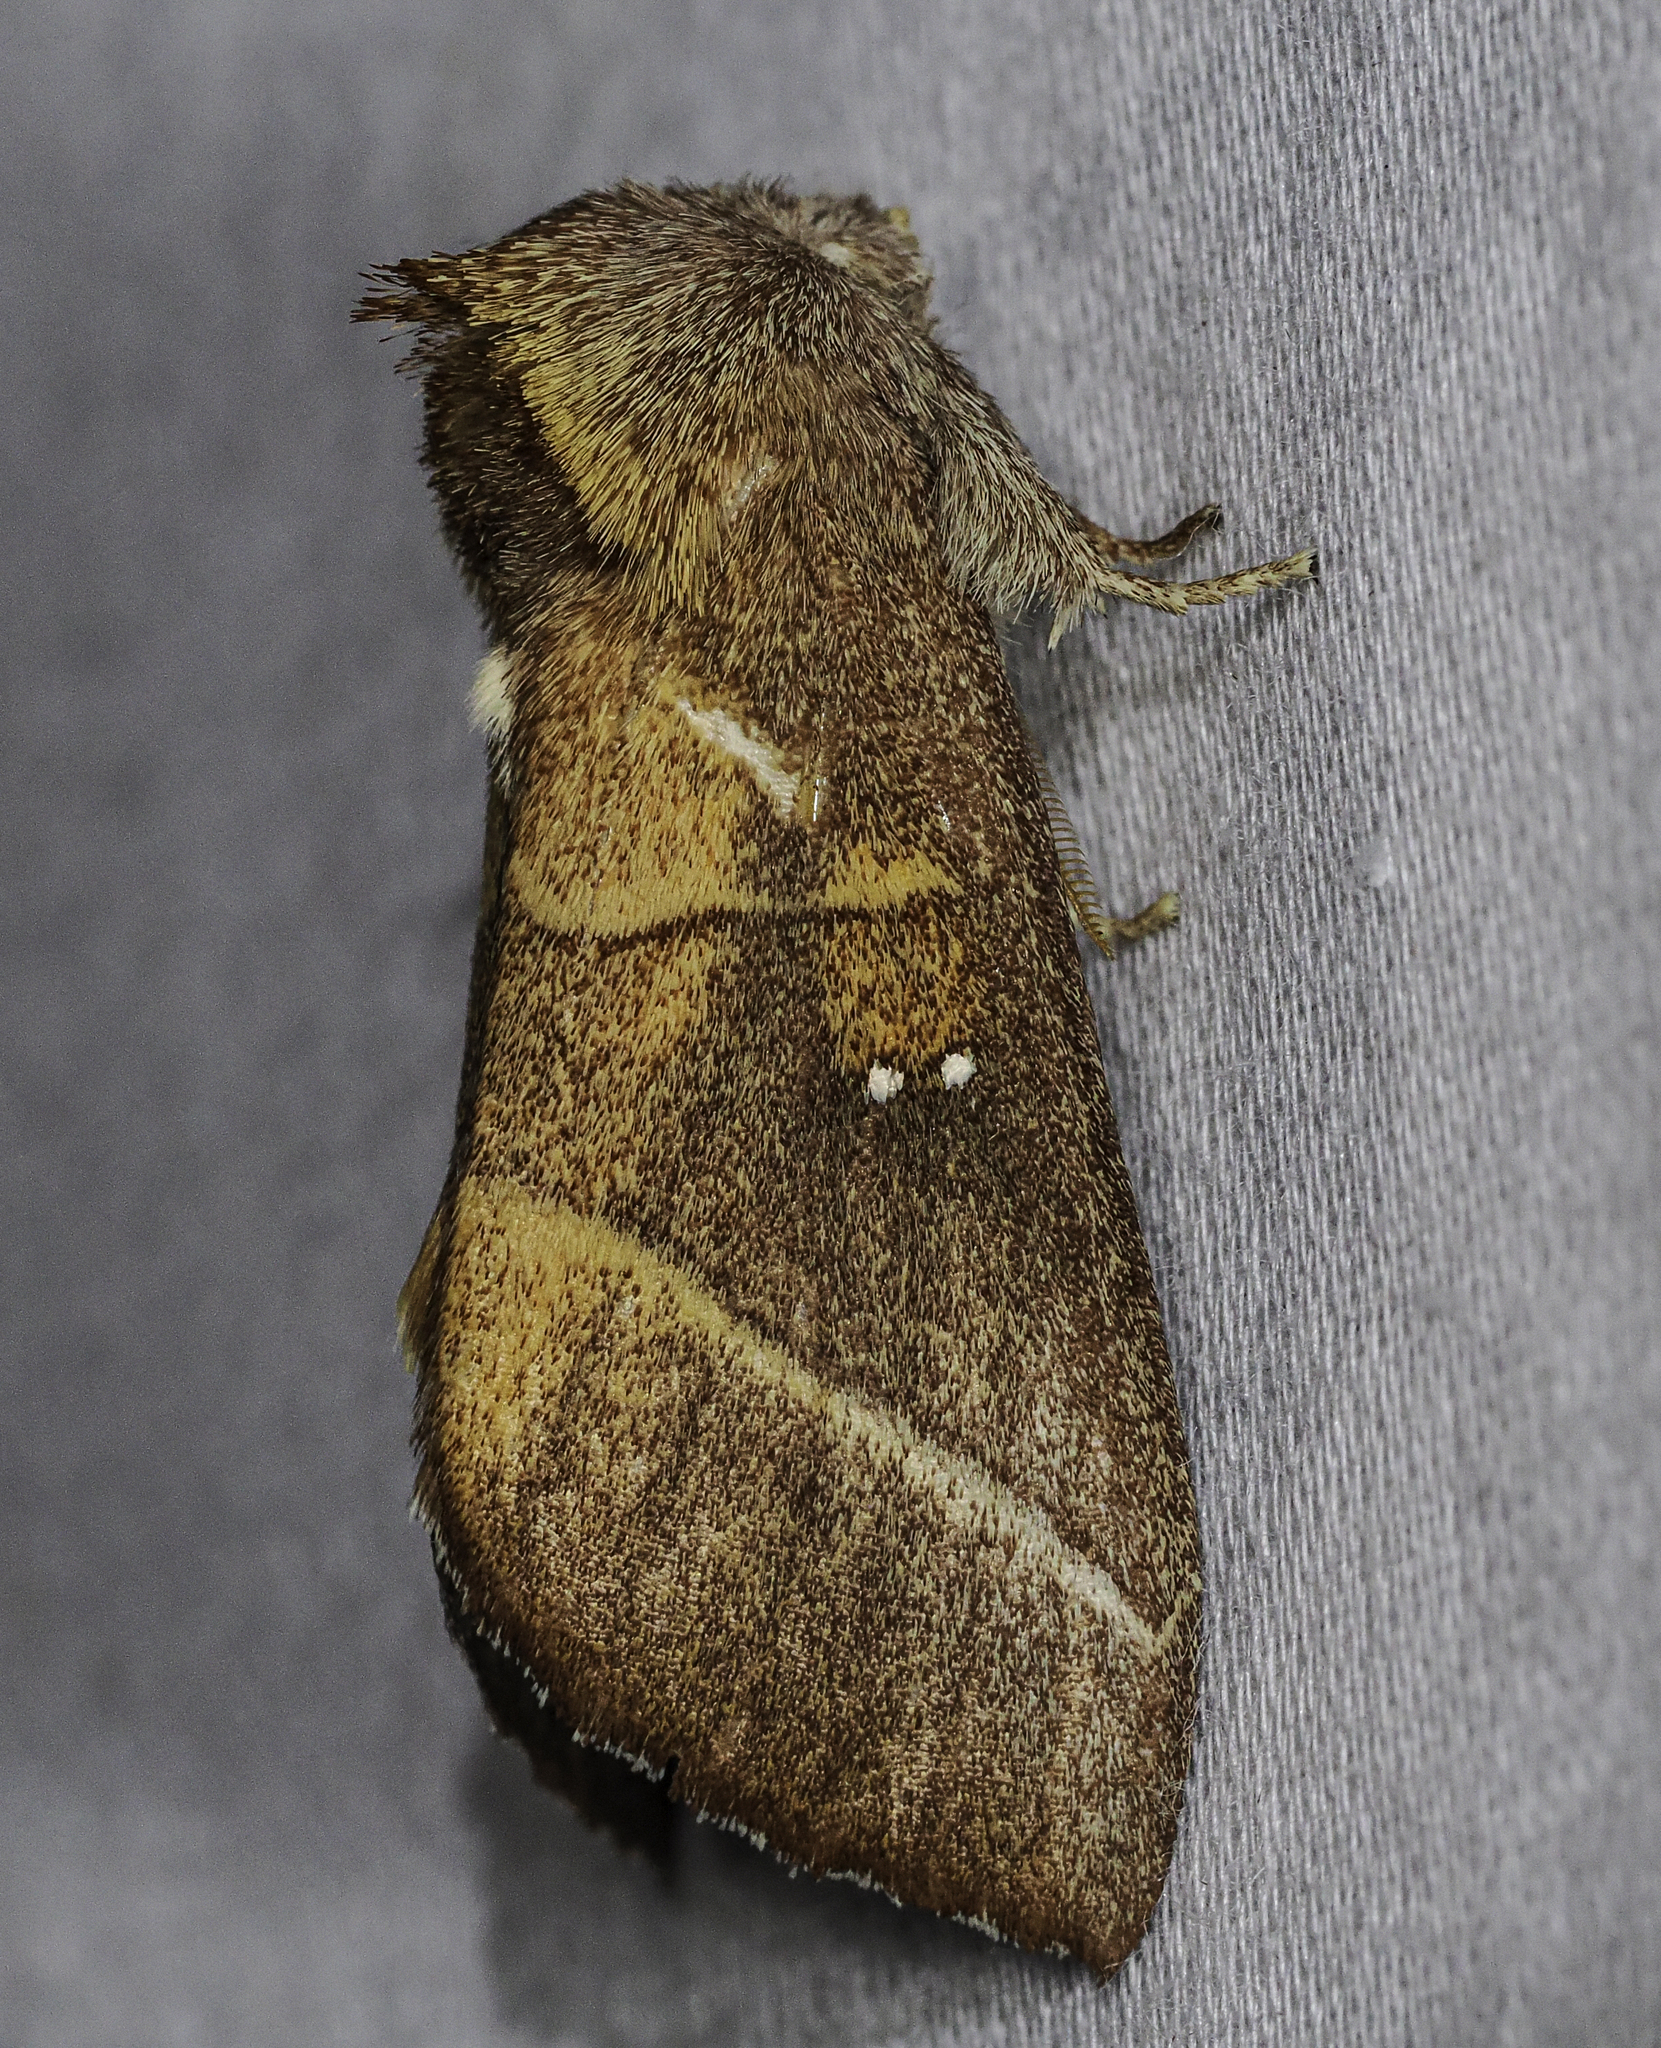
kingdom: Animalia
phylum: Arthropoda
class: Insecta
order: Lepidoptera
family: Notodontidae
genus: Nadata
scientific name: Nadata gibbosa
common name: White-dotted prominent
